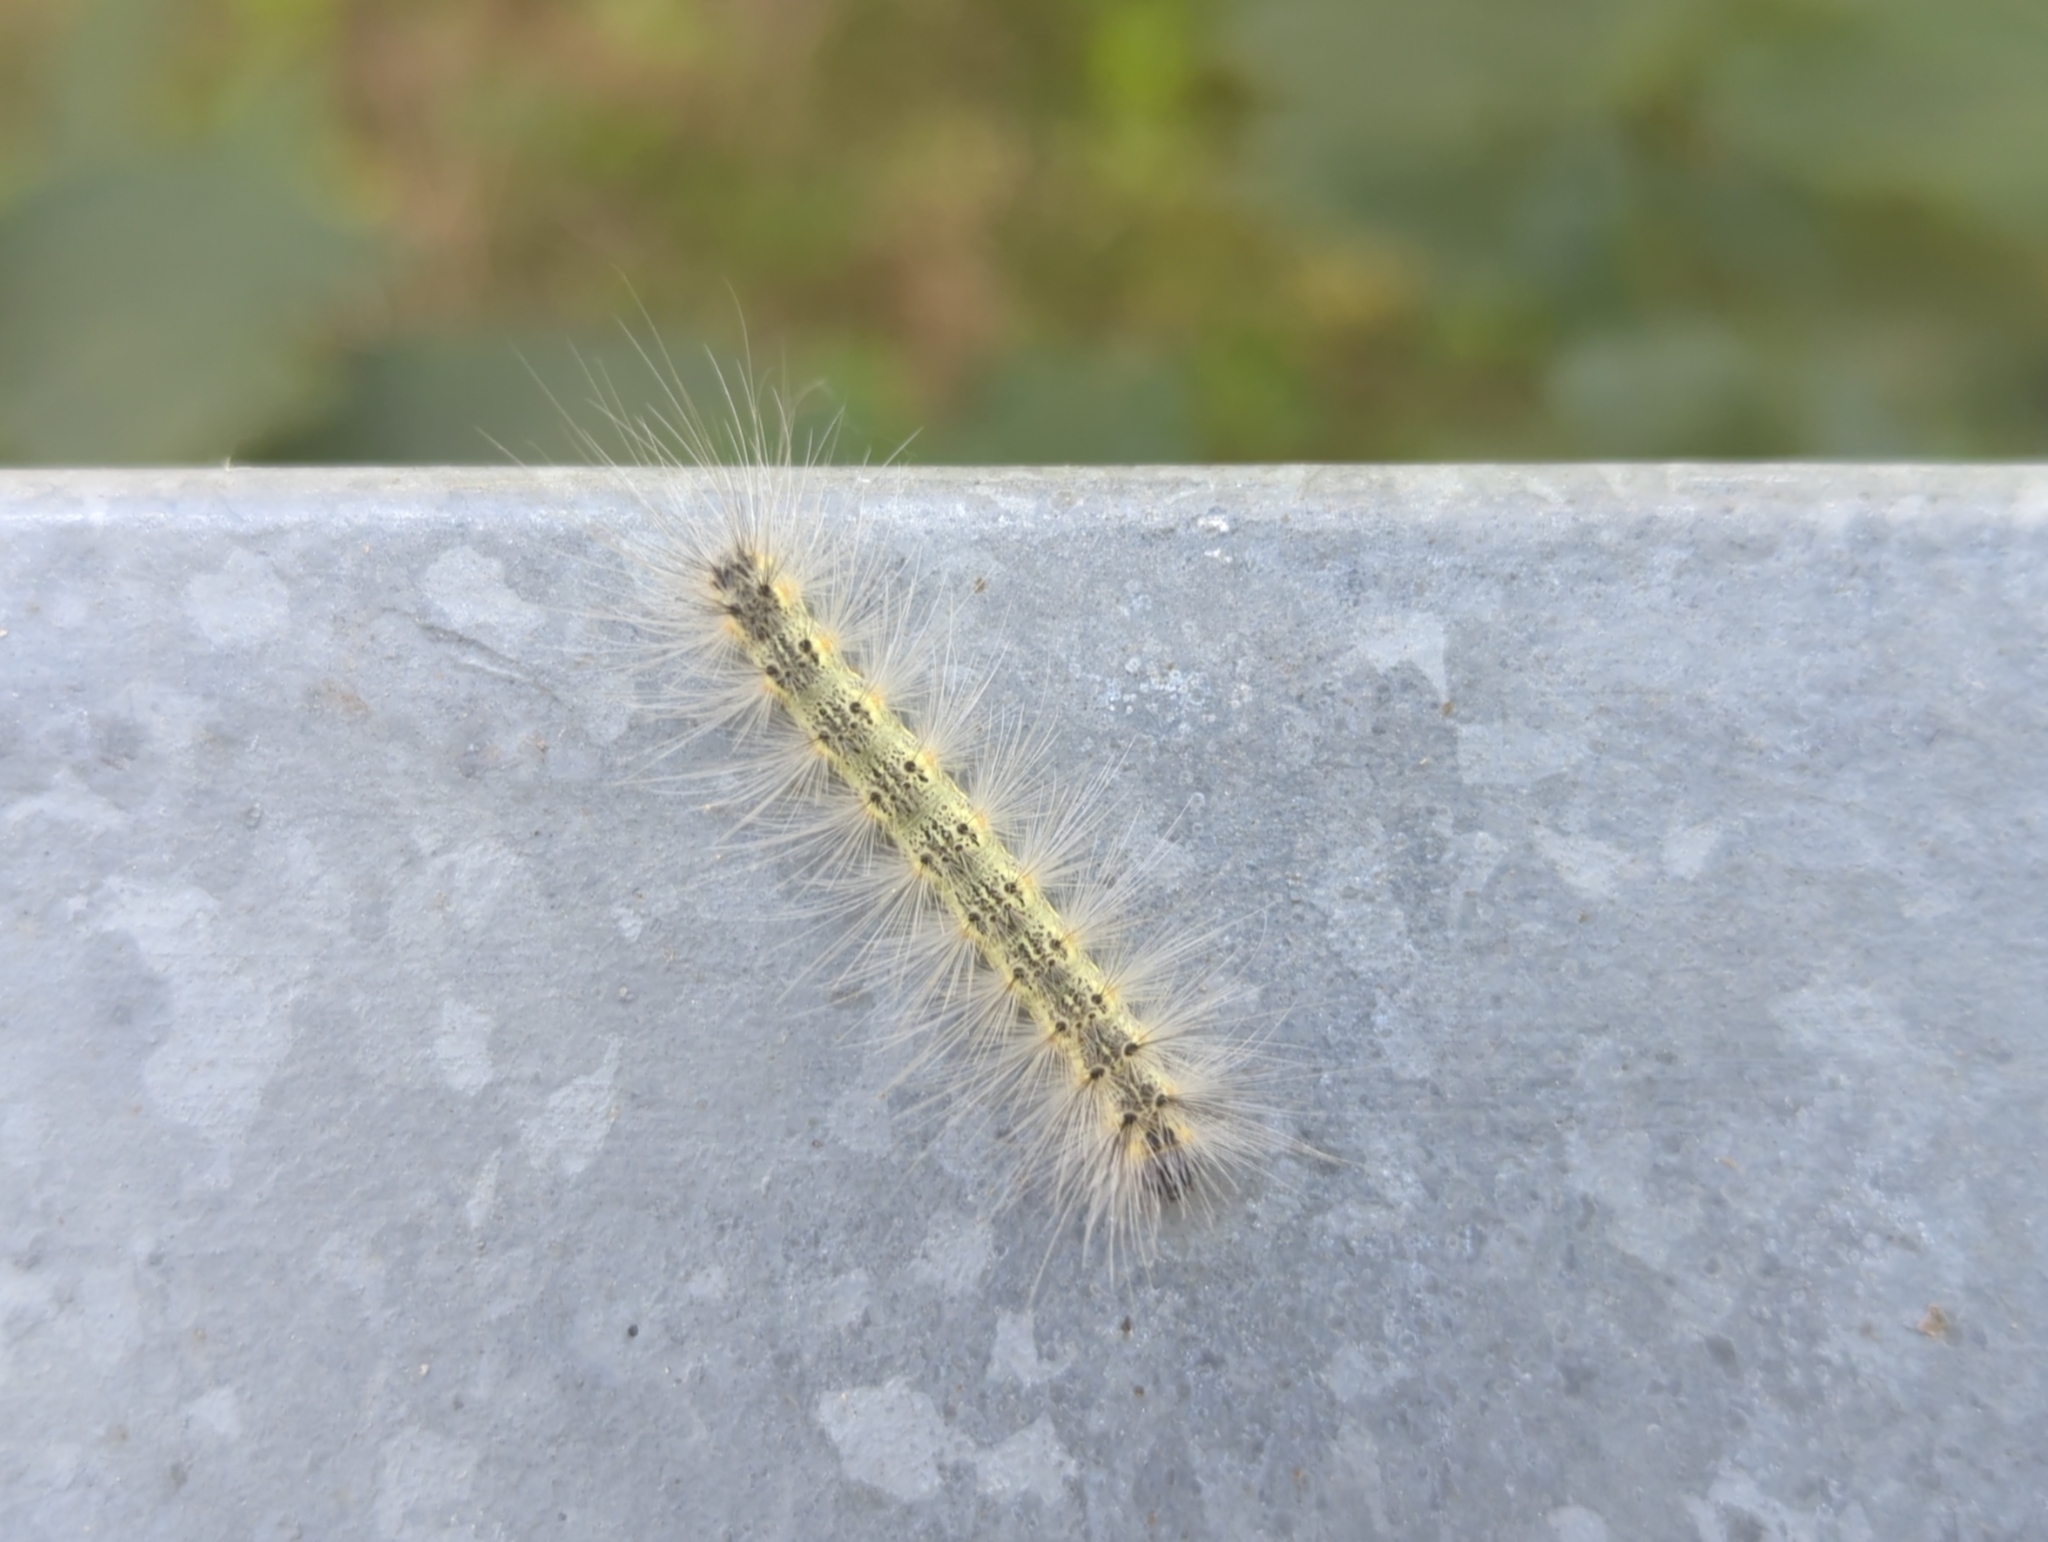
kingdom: Animalia
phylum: Arthropoda
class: Insecta
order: Lepidoptera
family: Erebidae
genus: Hyphantria
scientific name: Hyphantria cunea
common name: American white moth
